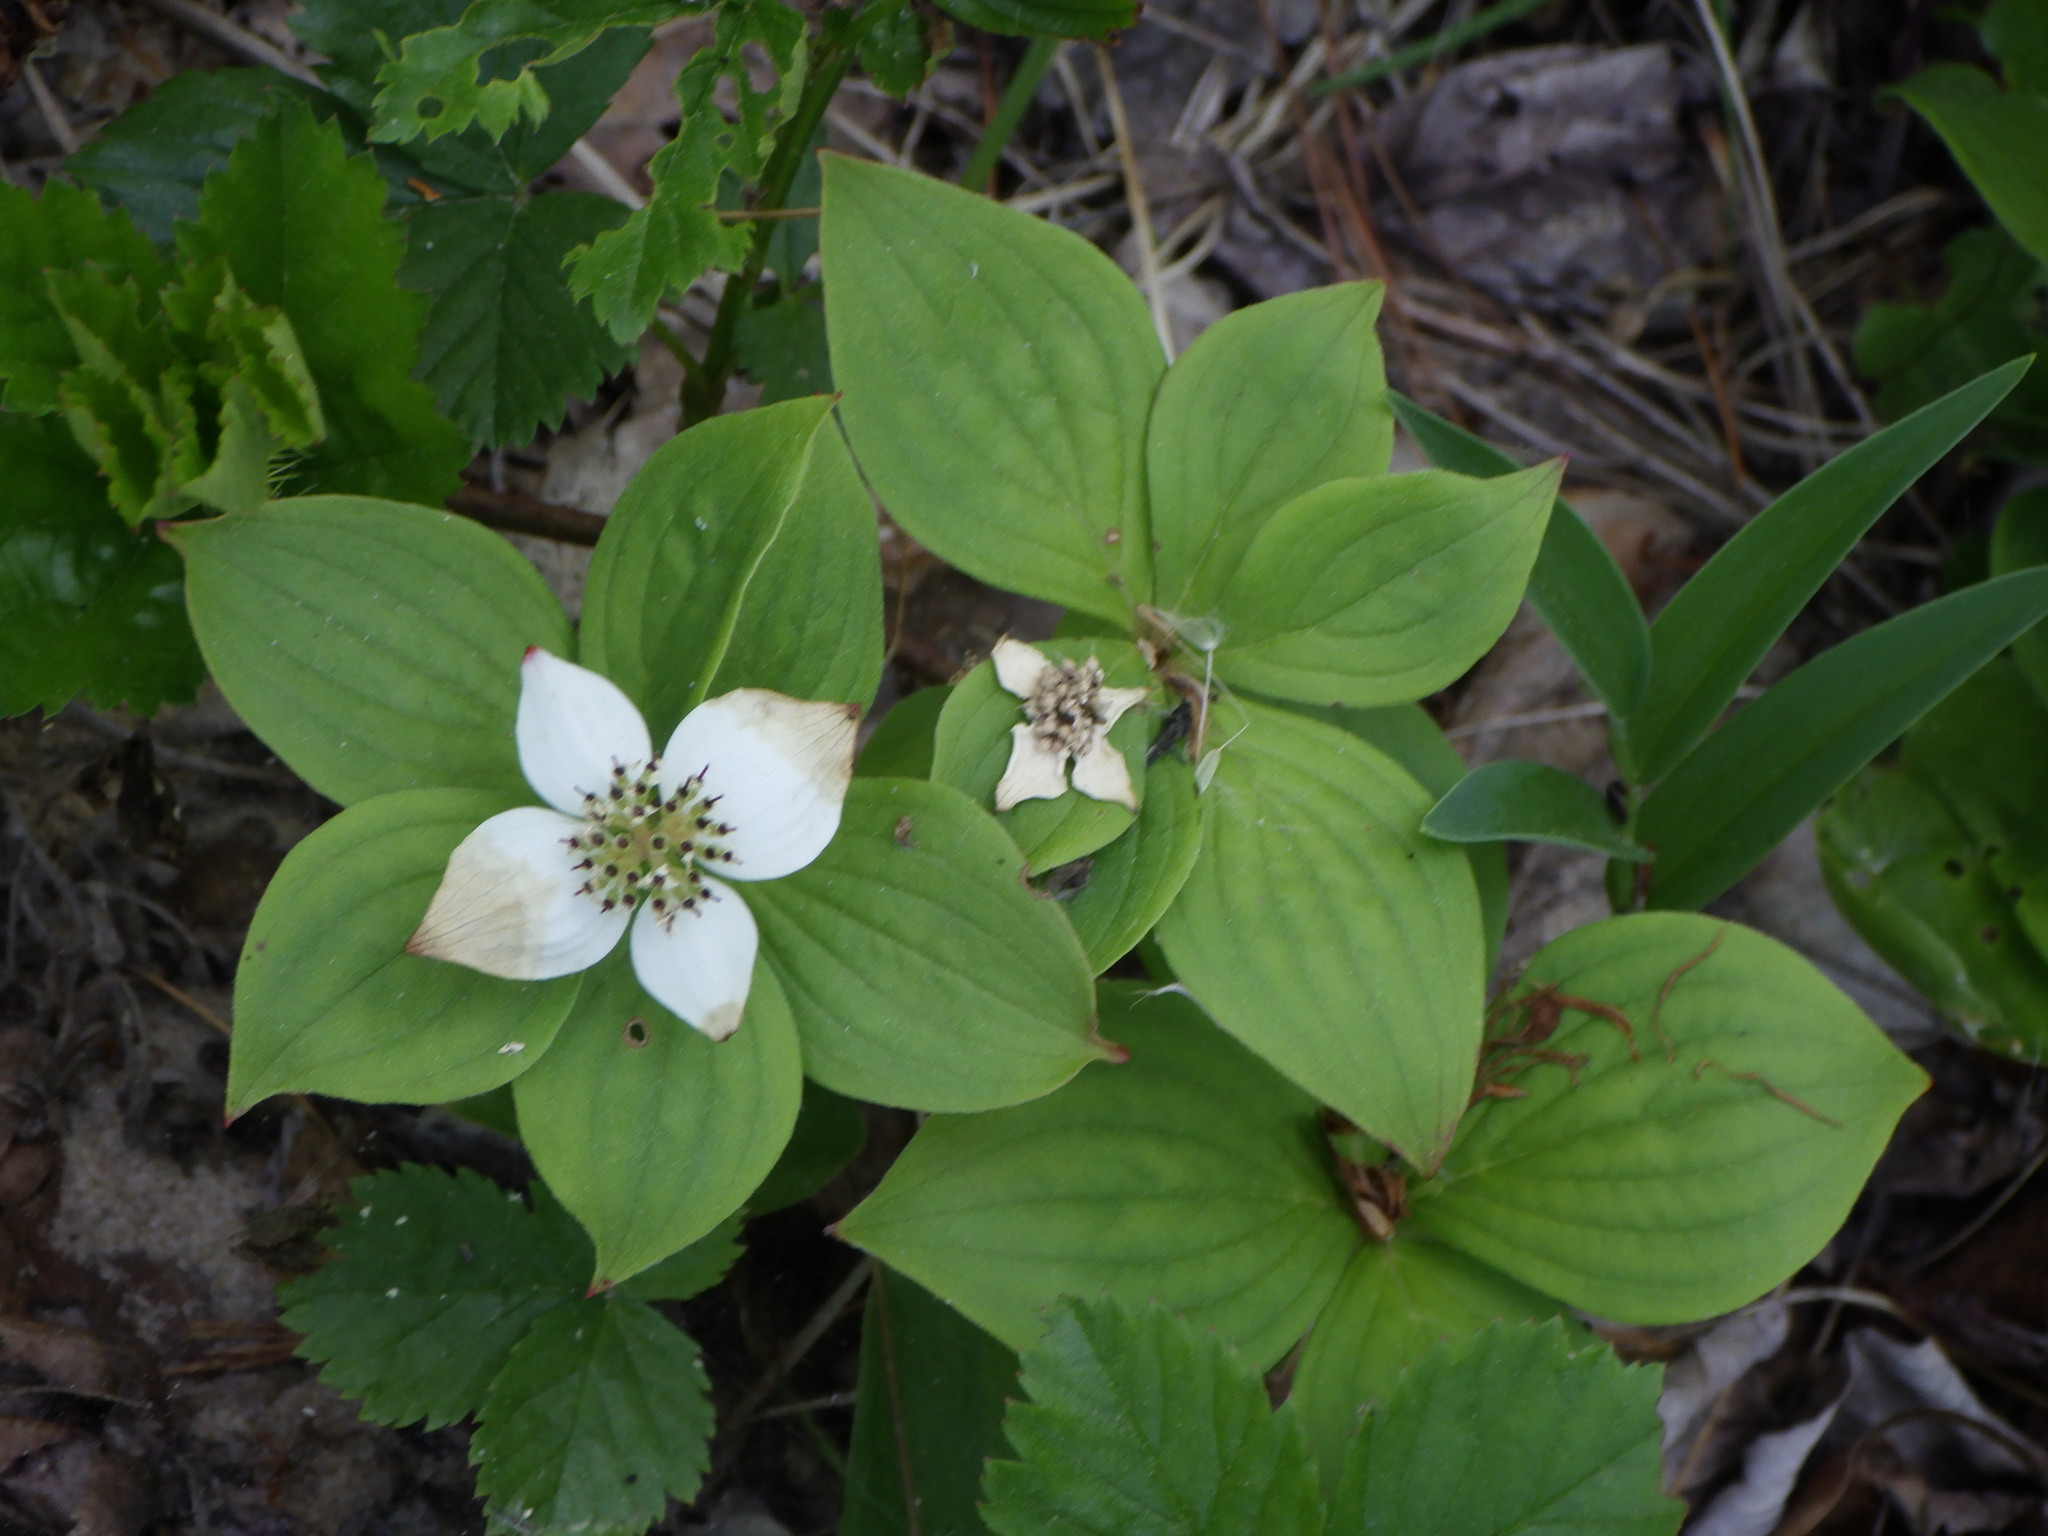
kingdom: Plantae
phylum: Tracheophyta
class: Magnoliopsida
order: Cornales
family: Cornaceae
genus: Cornus
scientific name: Cornus canadensis
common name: Creeping dogwood
